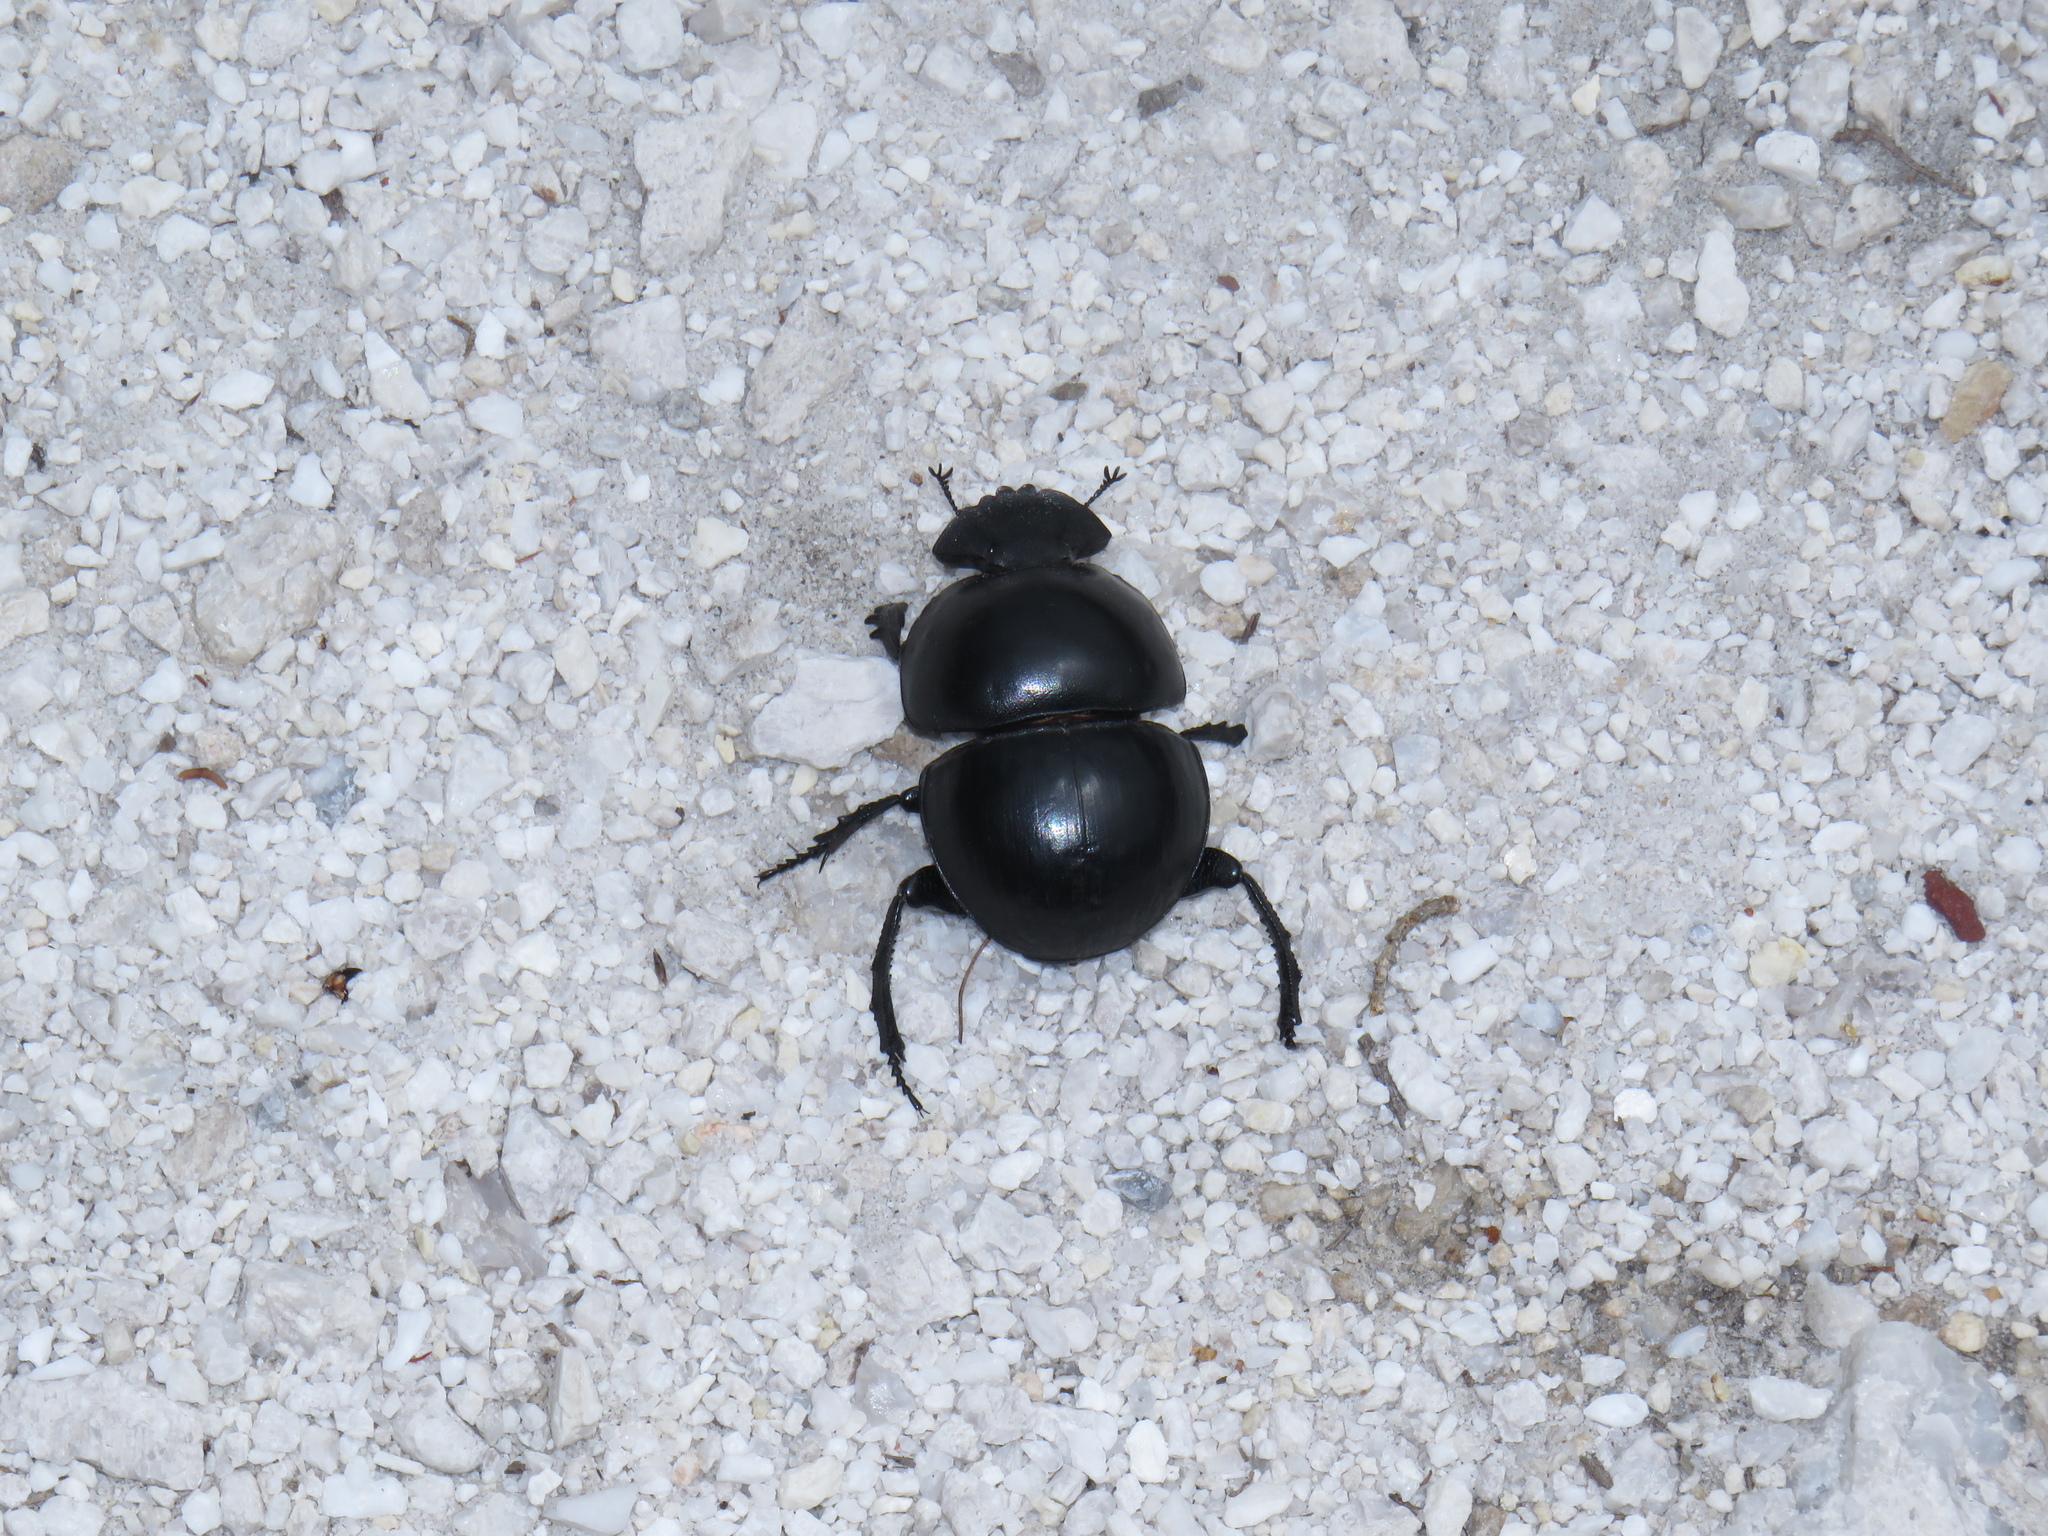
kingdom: Animalia
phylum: Arthropoda
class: Insecta
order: Coleoptera
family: Scarabaeidae
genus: Circellium
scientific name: Circellium bacchus
